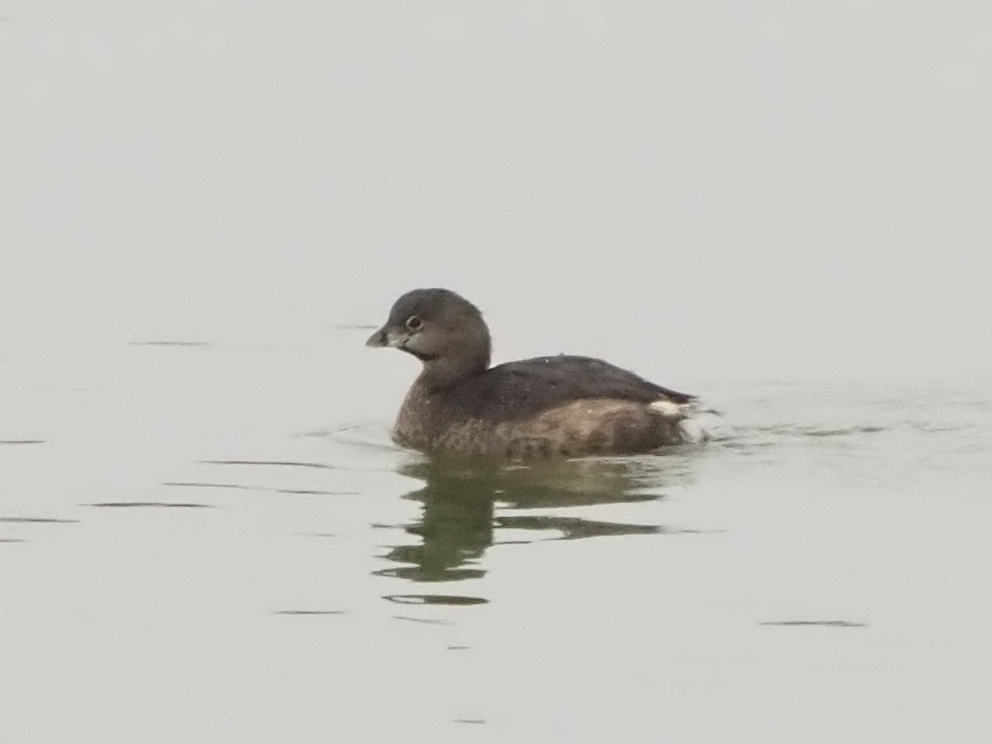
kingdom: Animalia
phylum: Chordata
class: Aves
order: Podicipediformes
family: Podicipedidae
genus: Podilymbus
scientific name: Podilymbus podiceps
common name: Pied-billed grebe
